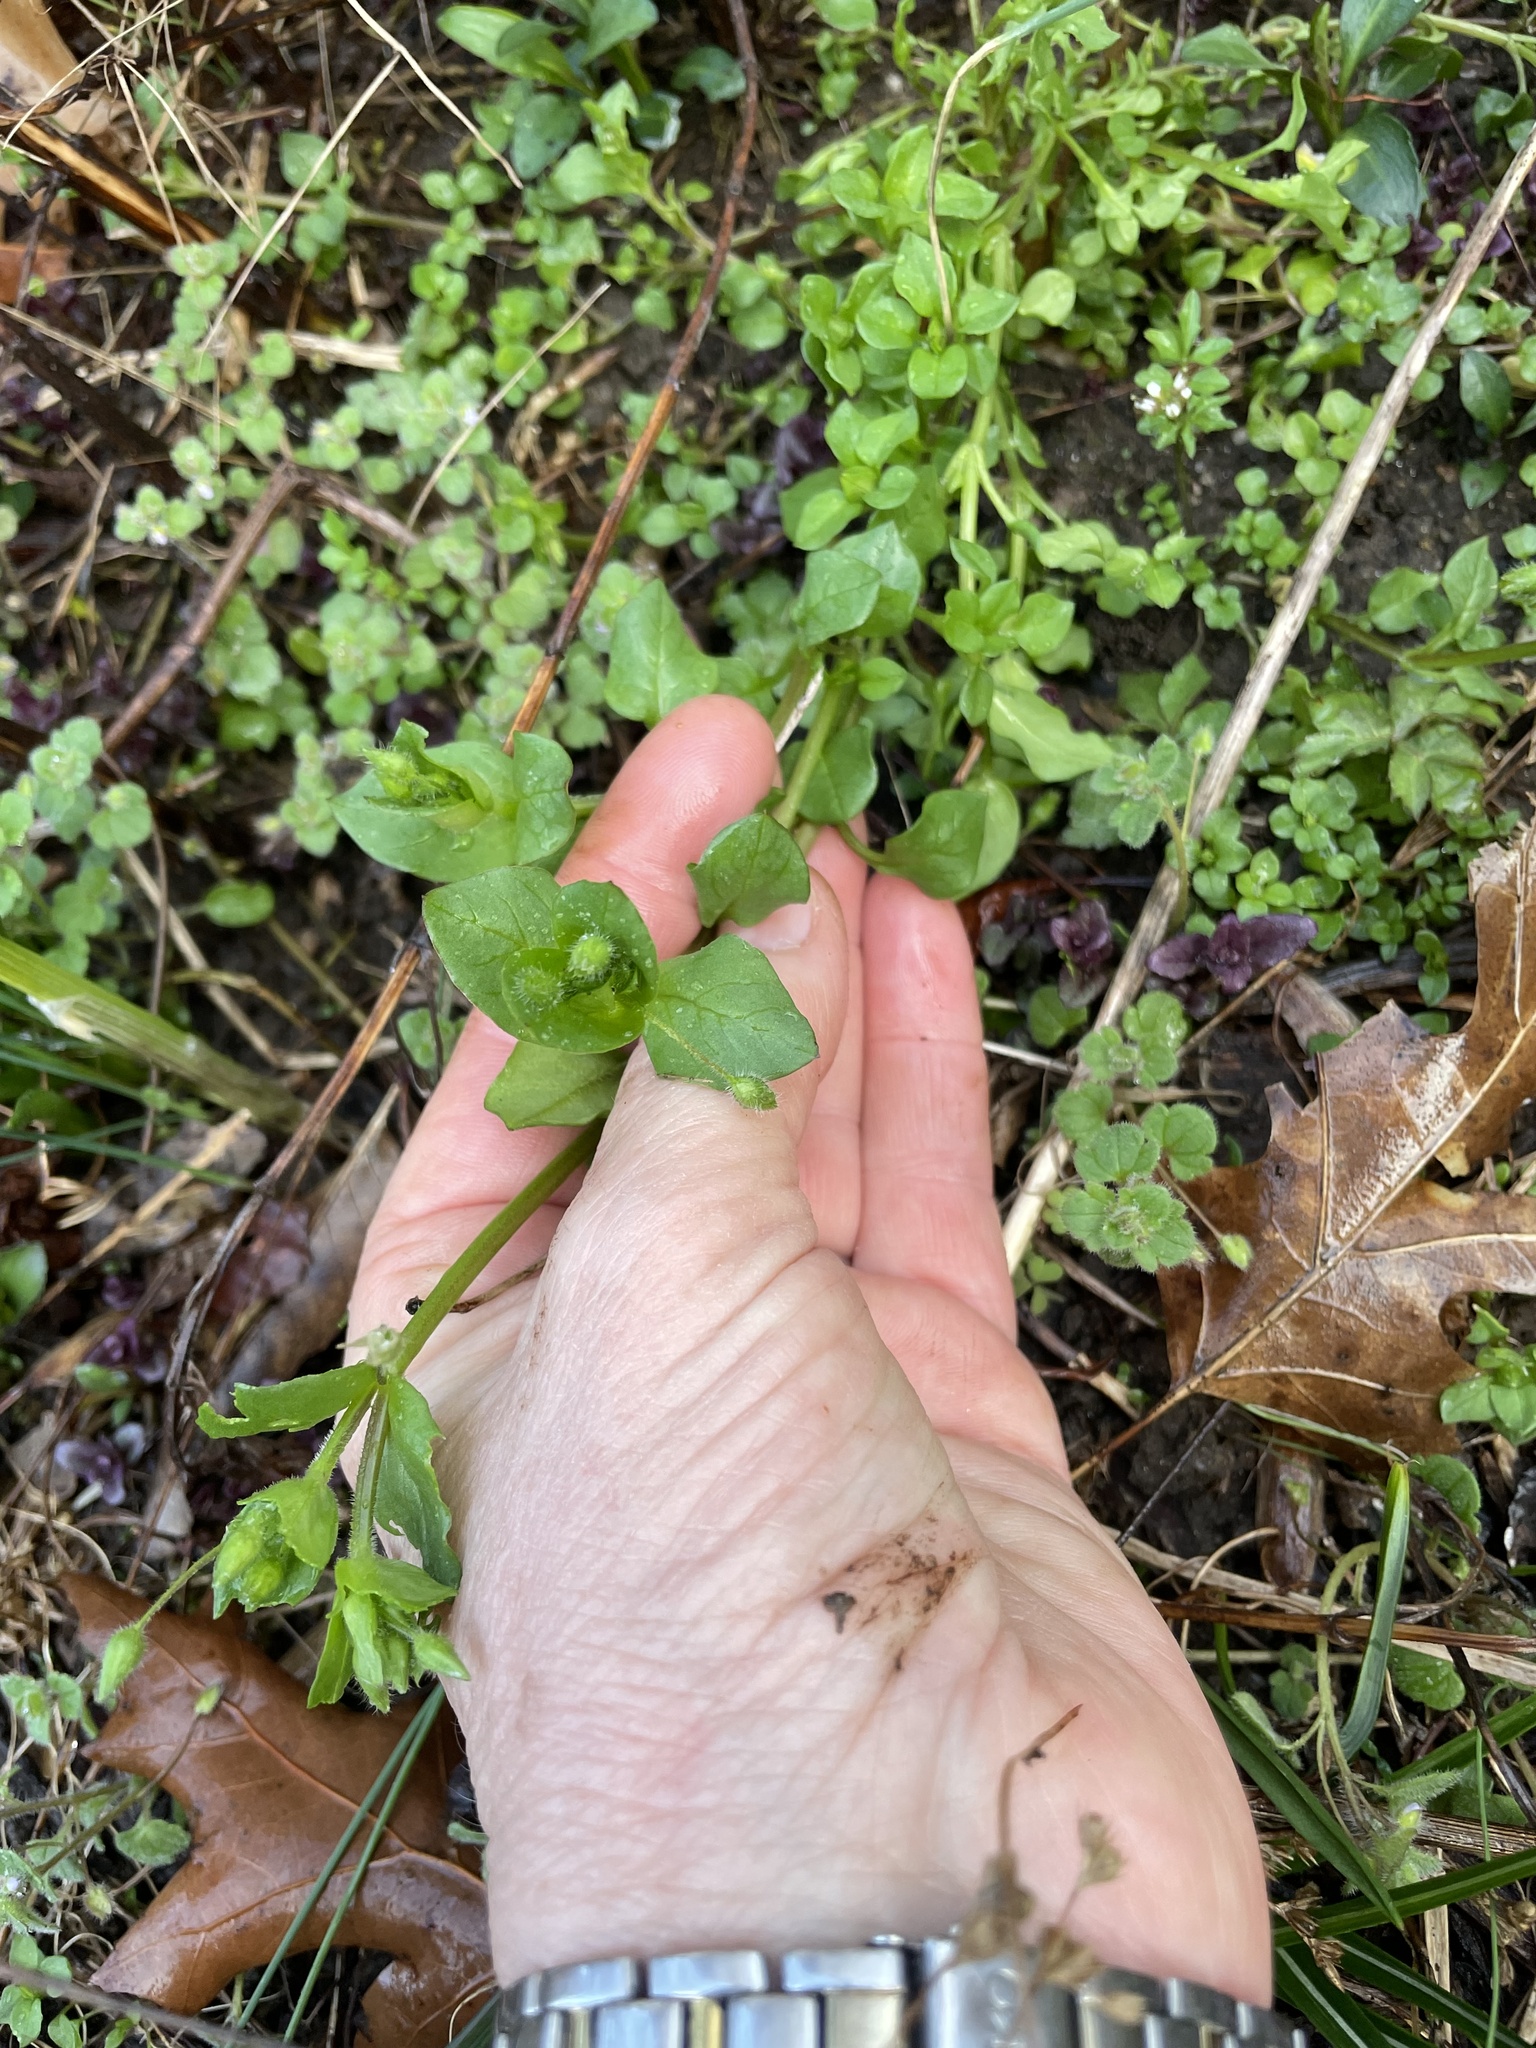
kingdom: Plantae
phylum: Tracheophyta
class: Magnoliopsida
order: Caryophyllales
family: Caryophyllaceae
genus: Stellaria
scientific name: Stellaria media
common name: Common chickweed
